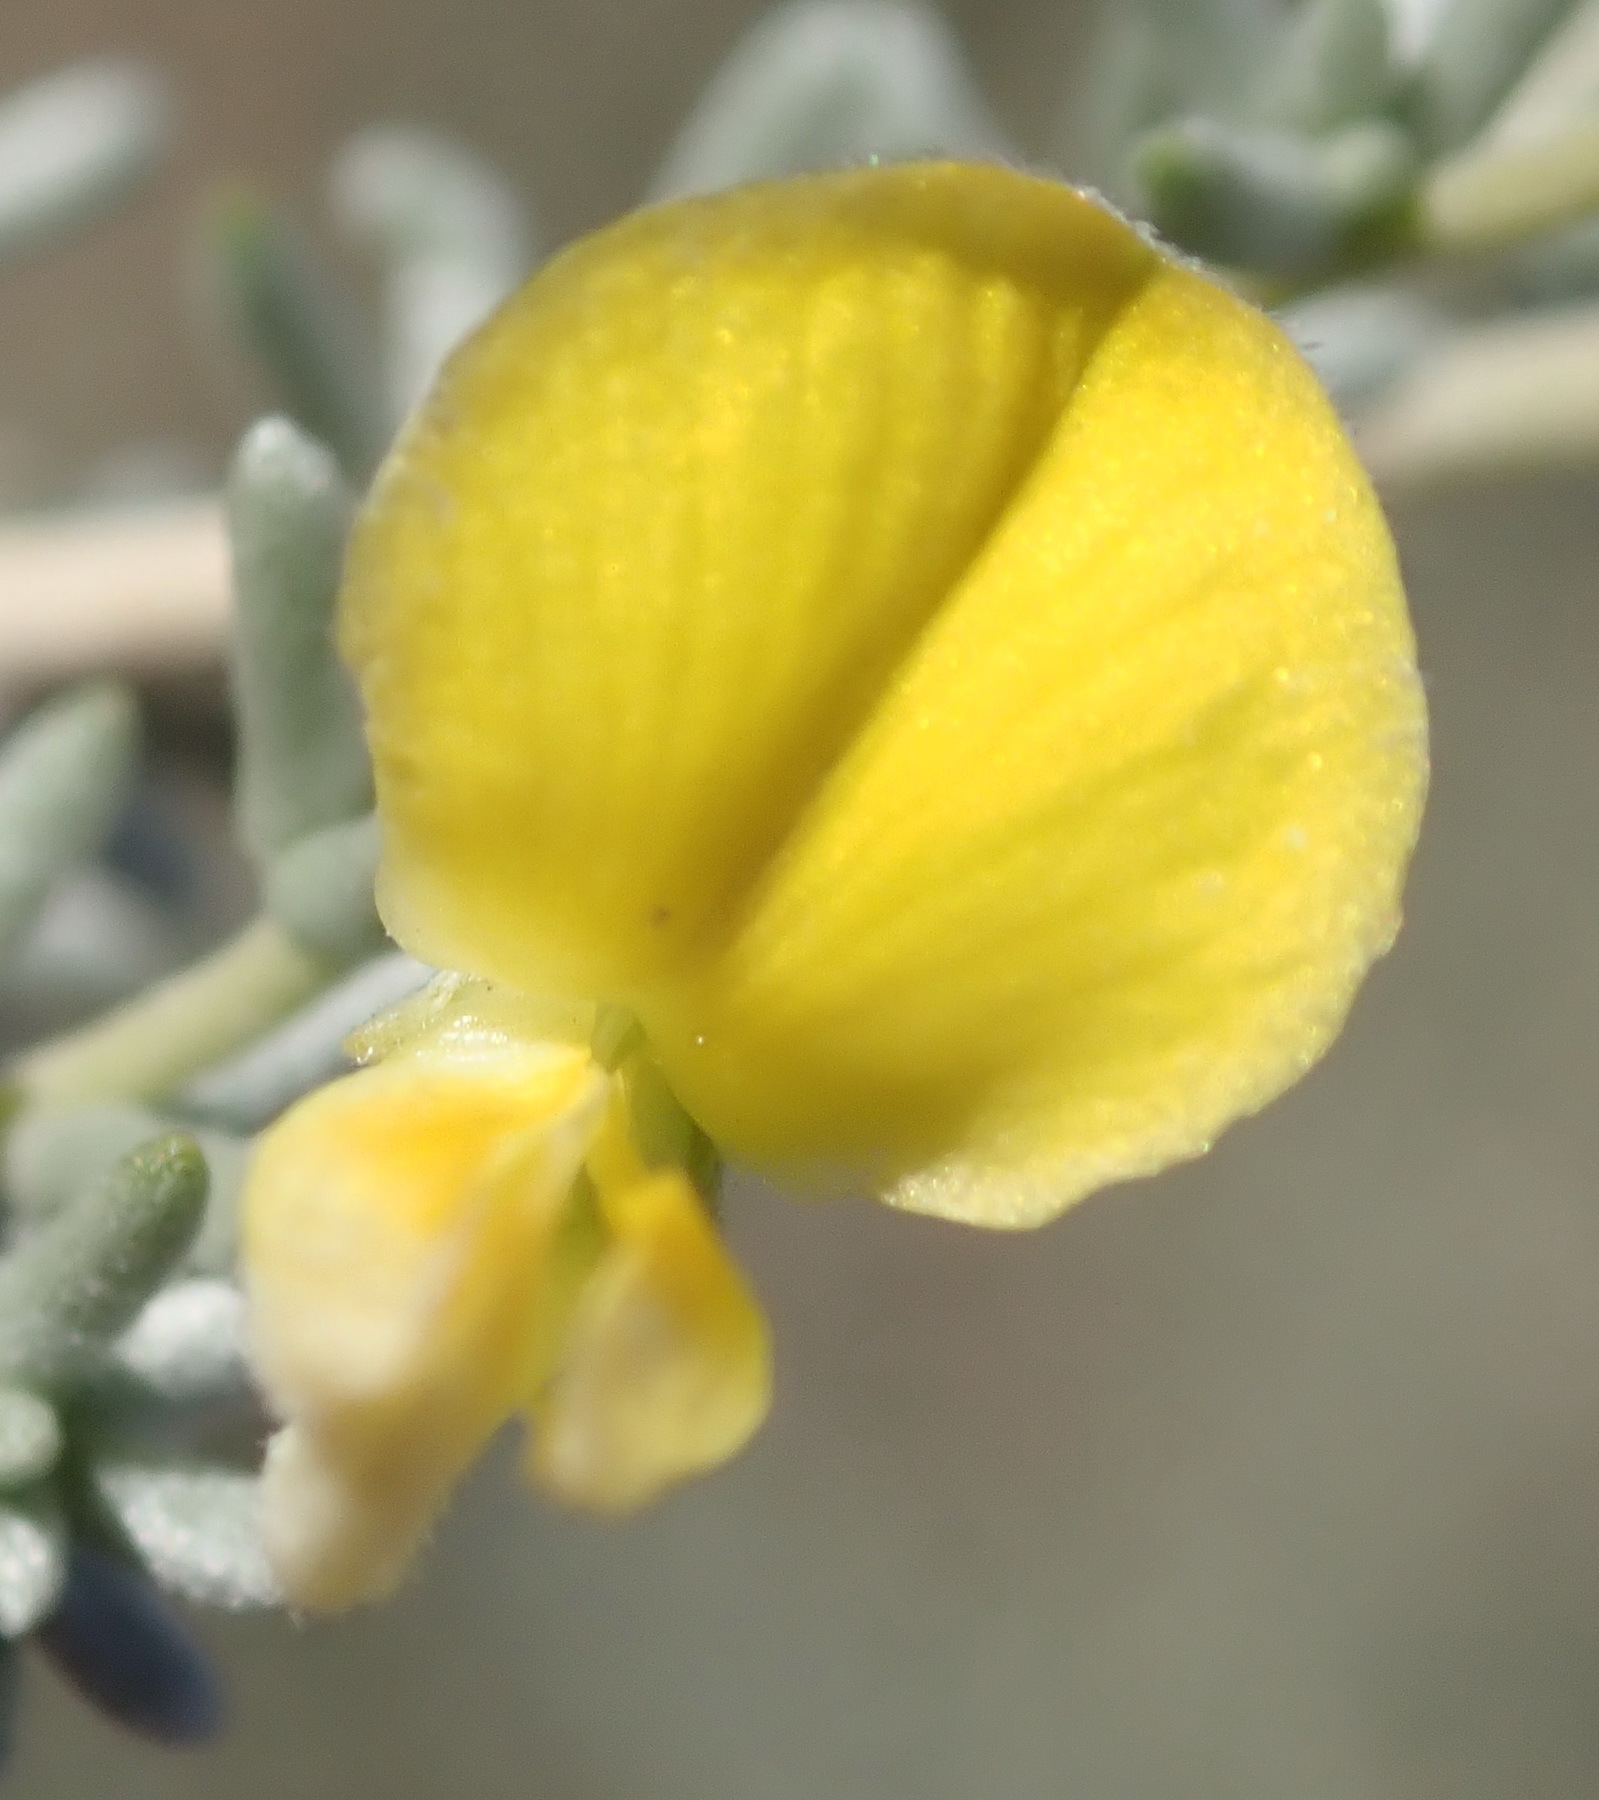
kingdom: Plantae
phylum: Tracheophyta
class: Magnoliopsida
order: Fabales
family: Fabaceae
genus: Aspalathus
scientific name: Aspalathus pedunculata
